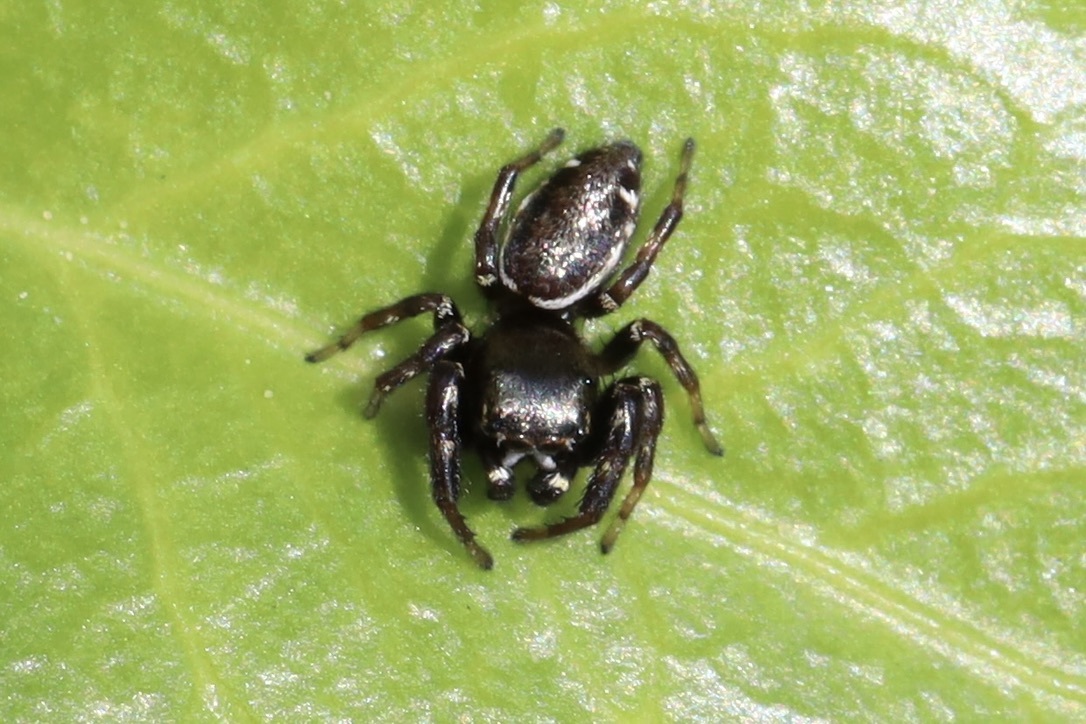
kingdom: Animalia
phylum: Arthropoda
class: Arachnida
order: Araneae
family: Salticidae
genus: Metaphidippus
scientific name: Metaphidippus manni
